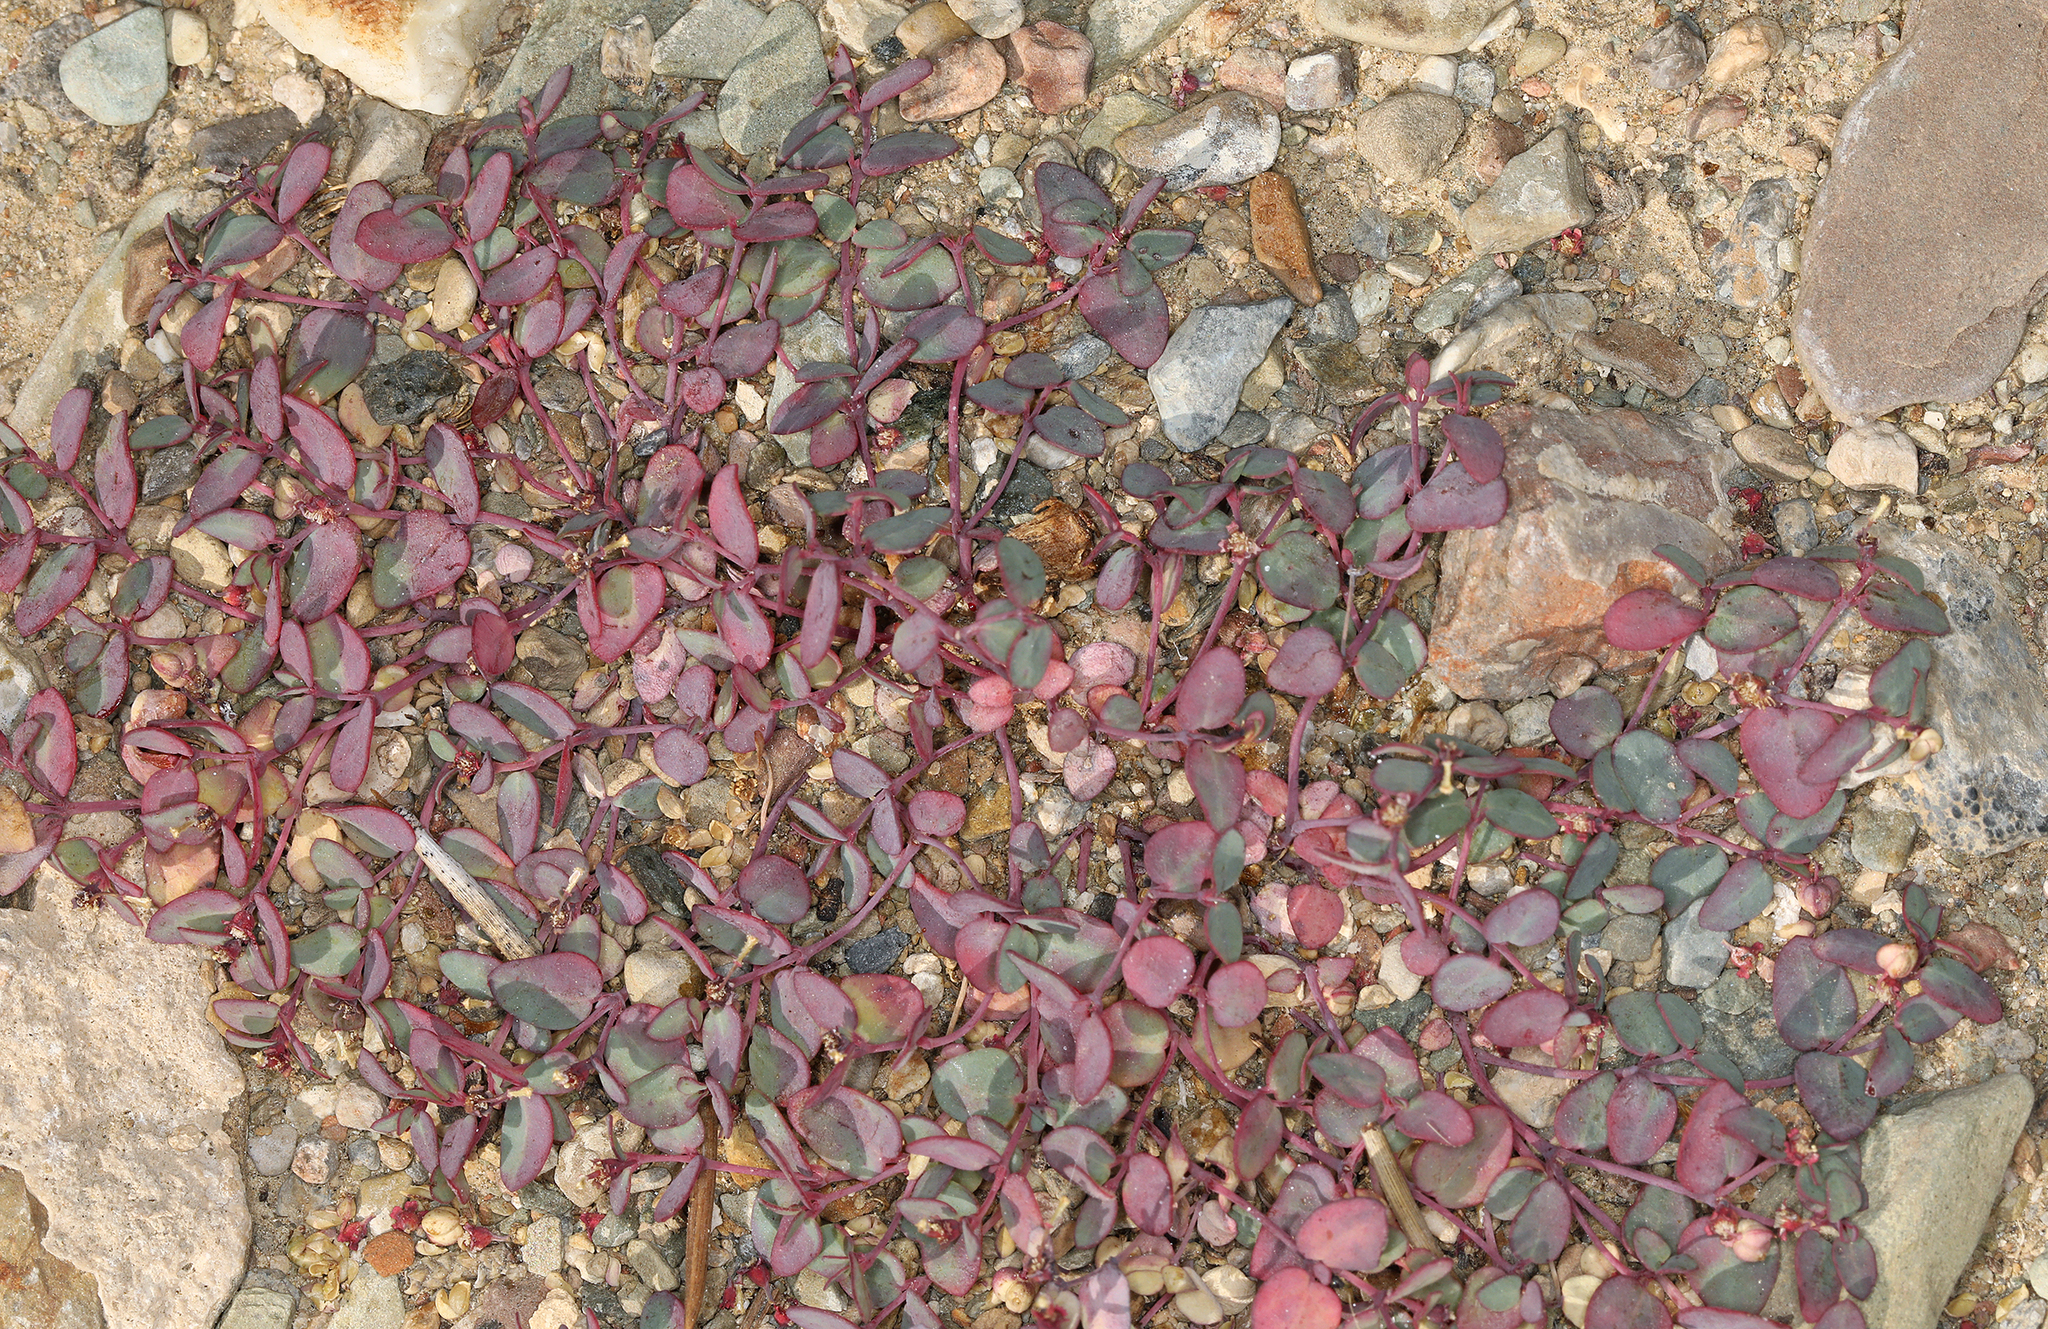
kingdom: Plantae
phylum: Tracheophyta
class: Magnoliopsida
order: Malpighiales
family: Euphorbiaceae
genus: Euphorbia
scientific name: Euphorbia fendleri
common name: Fendler's euphorbia
